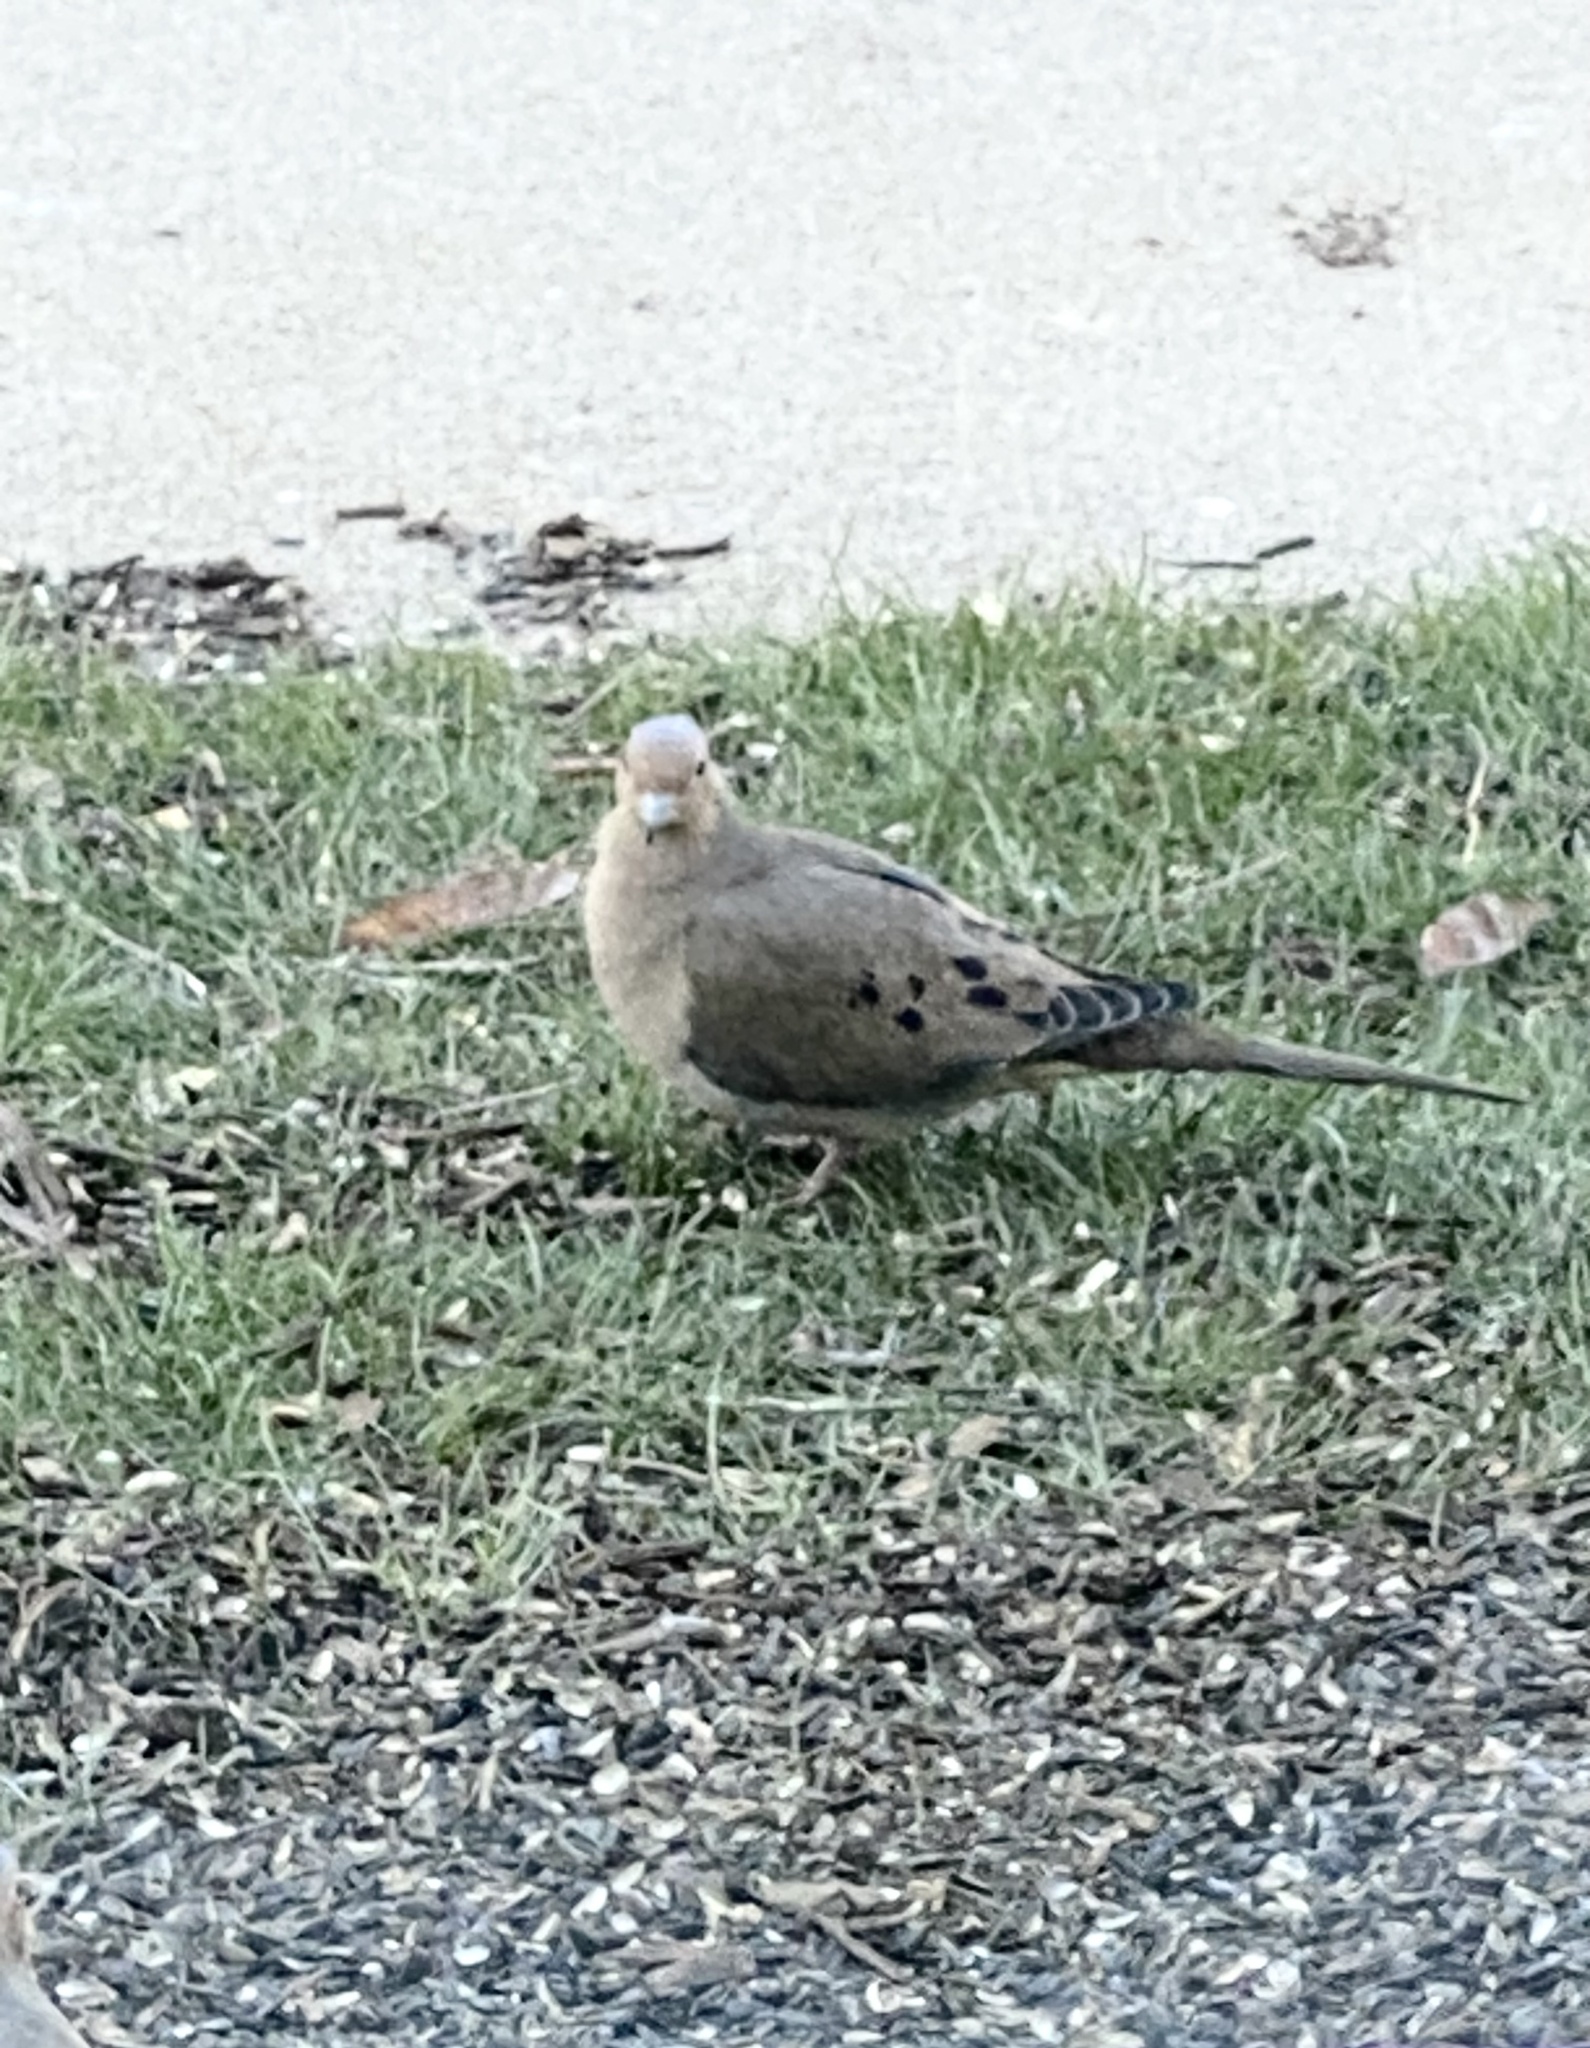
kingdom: Animalia
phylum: Chordata
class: Aves
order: Columbiformes
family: Columbidae
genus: Zenaida
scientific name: Zenaida macroura
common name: Mourning dove
